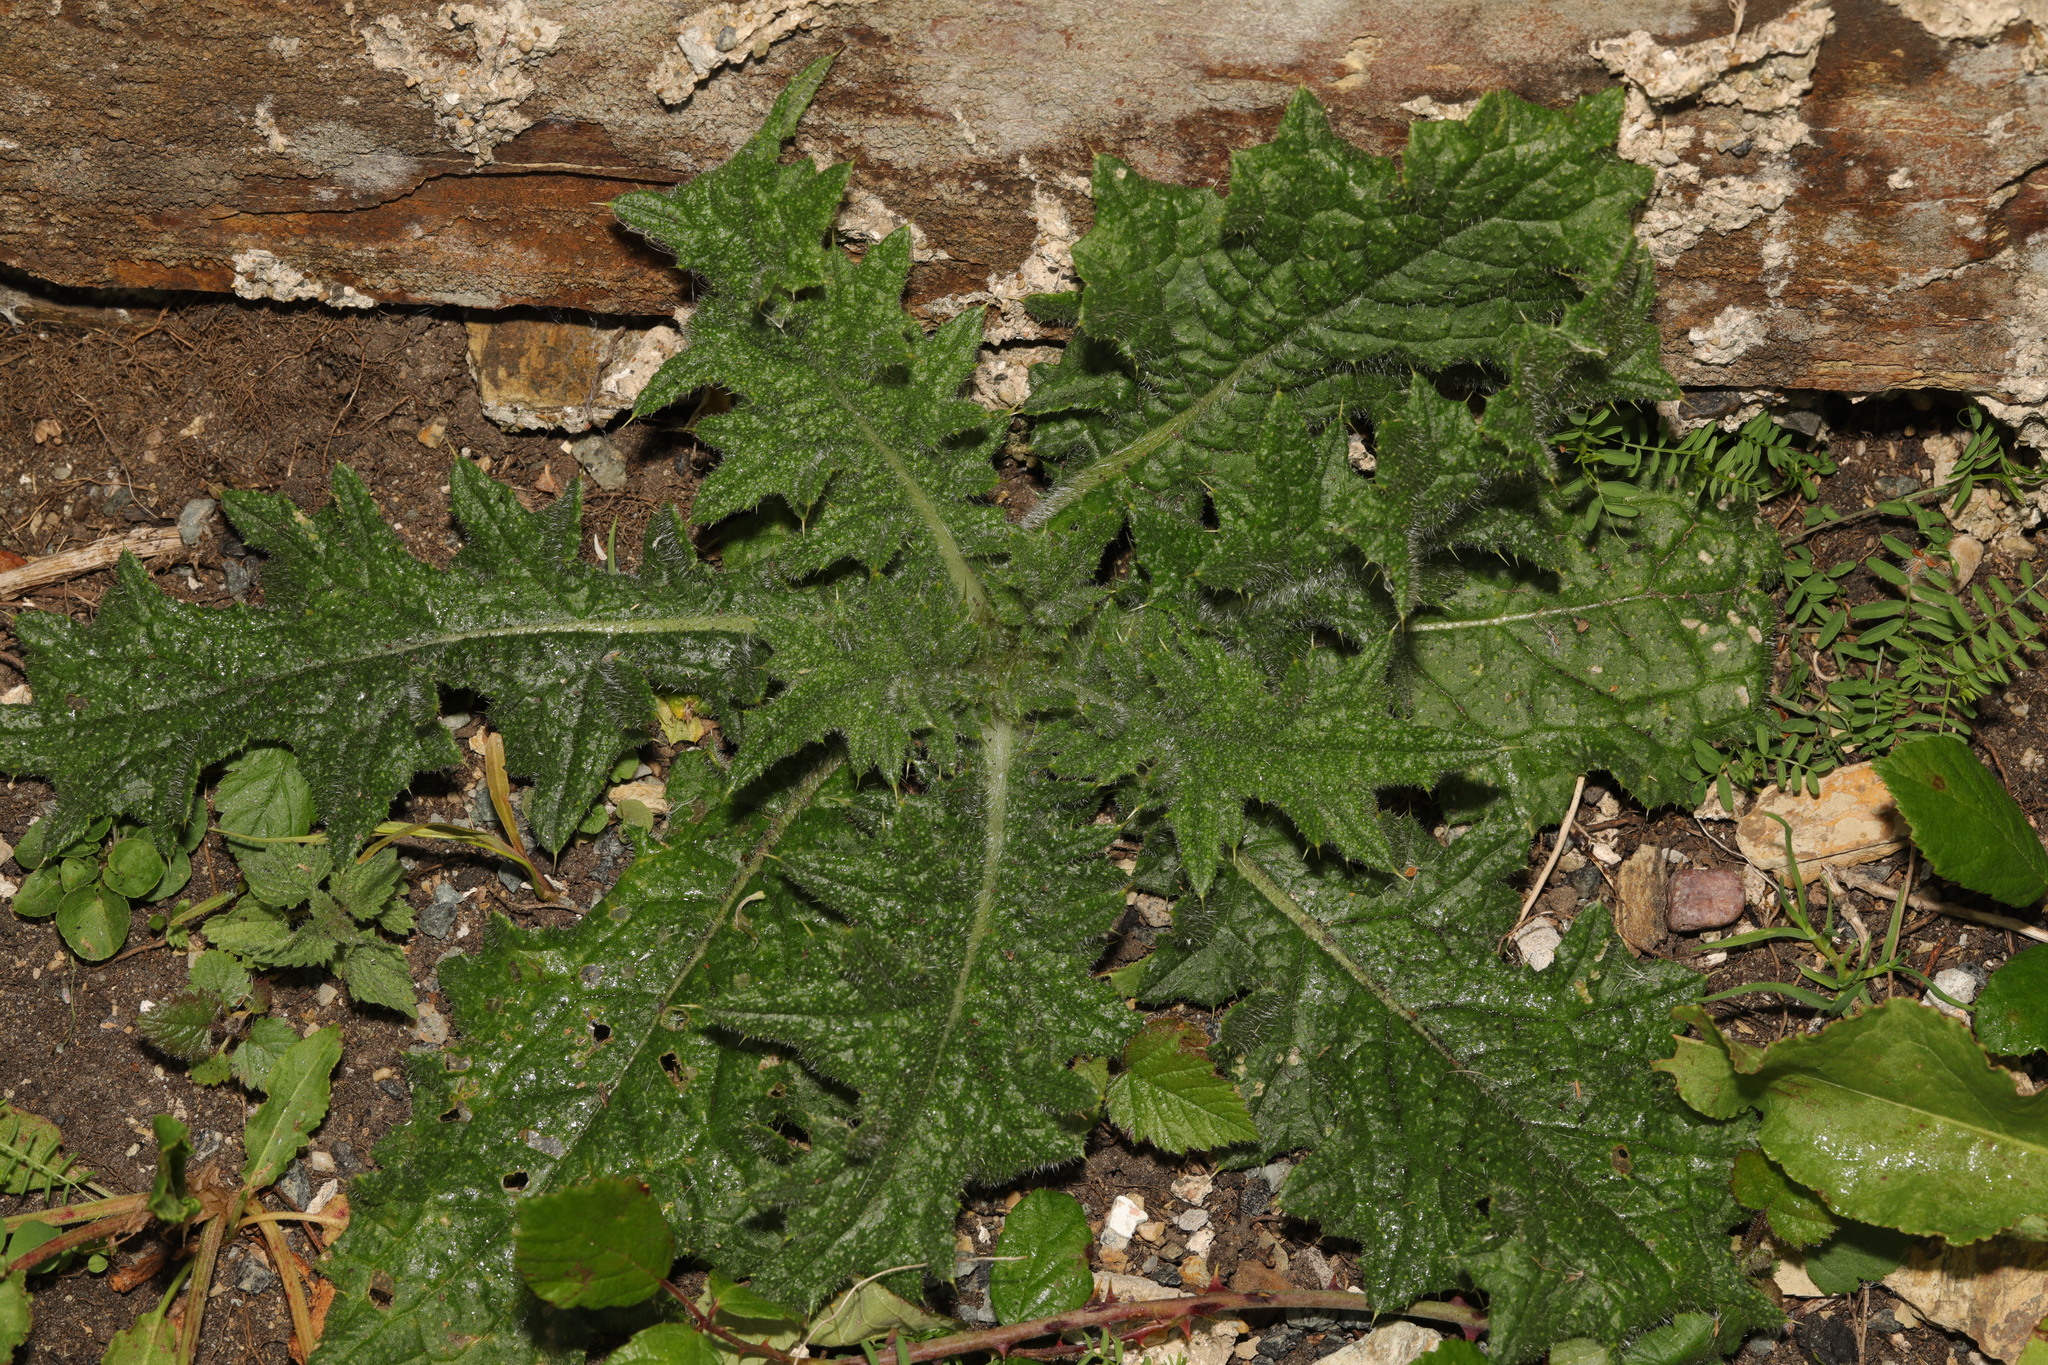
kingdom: Plantae
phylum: Tracheophyta
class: Magnoliopsida
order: Asterales
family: Asteraceae
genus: Cirsium
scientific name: Cirsium vulgare
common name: Bull thistle
